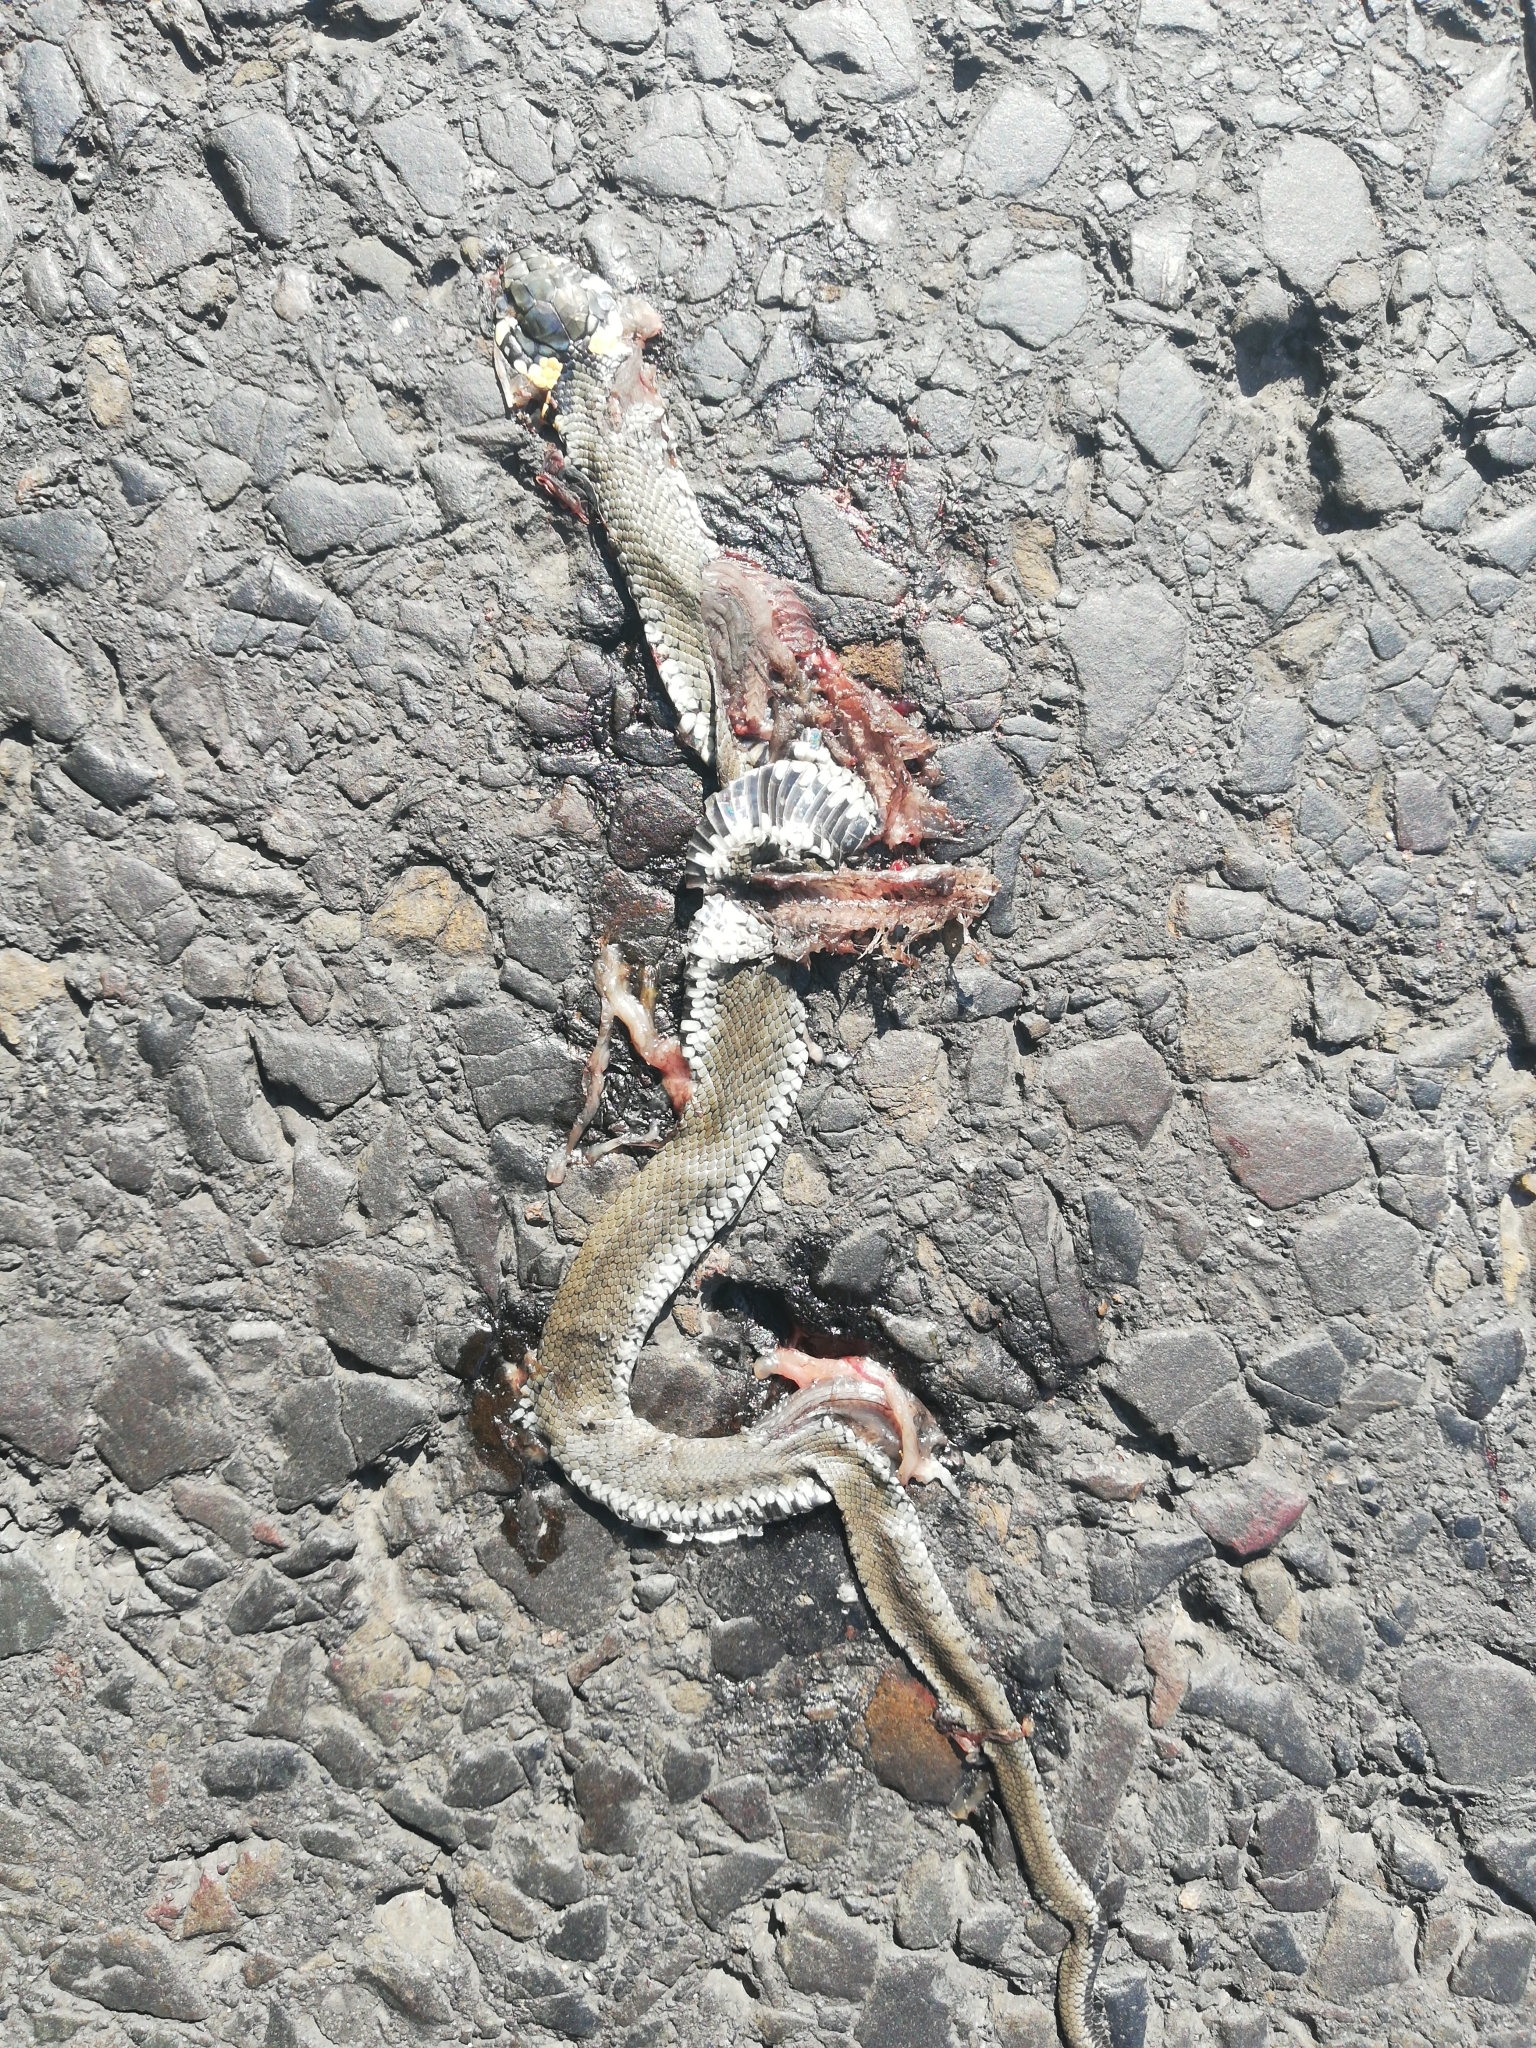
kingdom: Animalia
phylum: Chordata
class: Squamata
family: Colubridae
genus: Natrix
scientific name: Natrix natrix
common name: Grass snake
